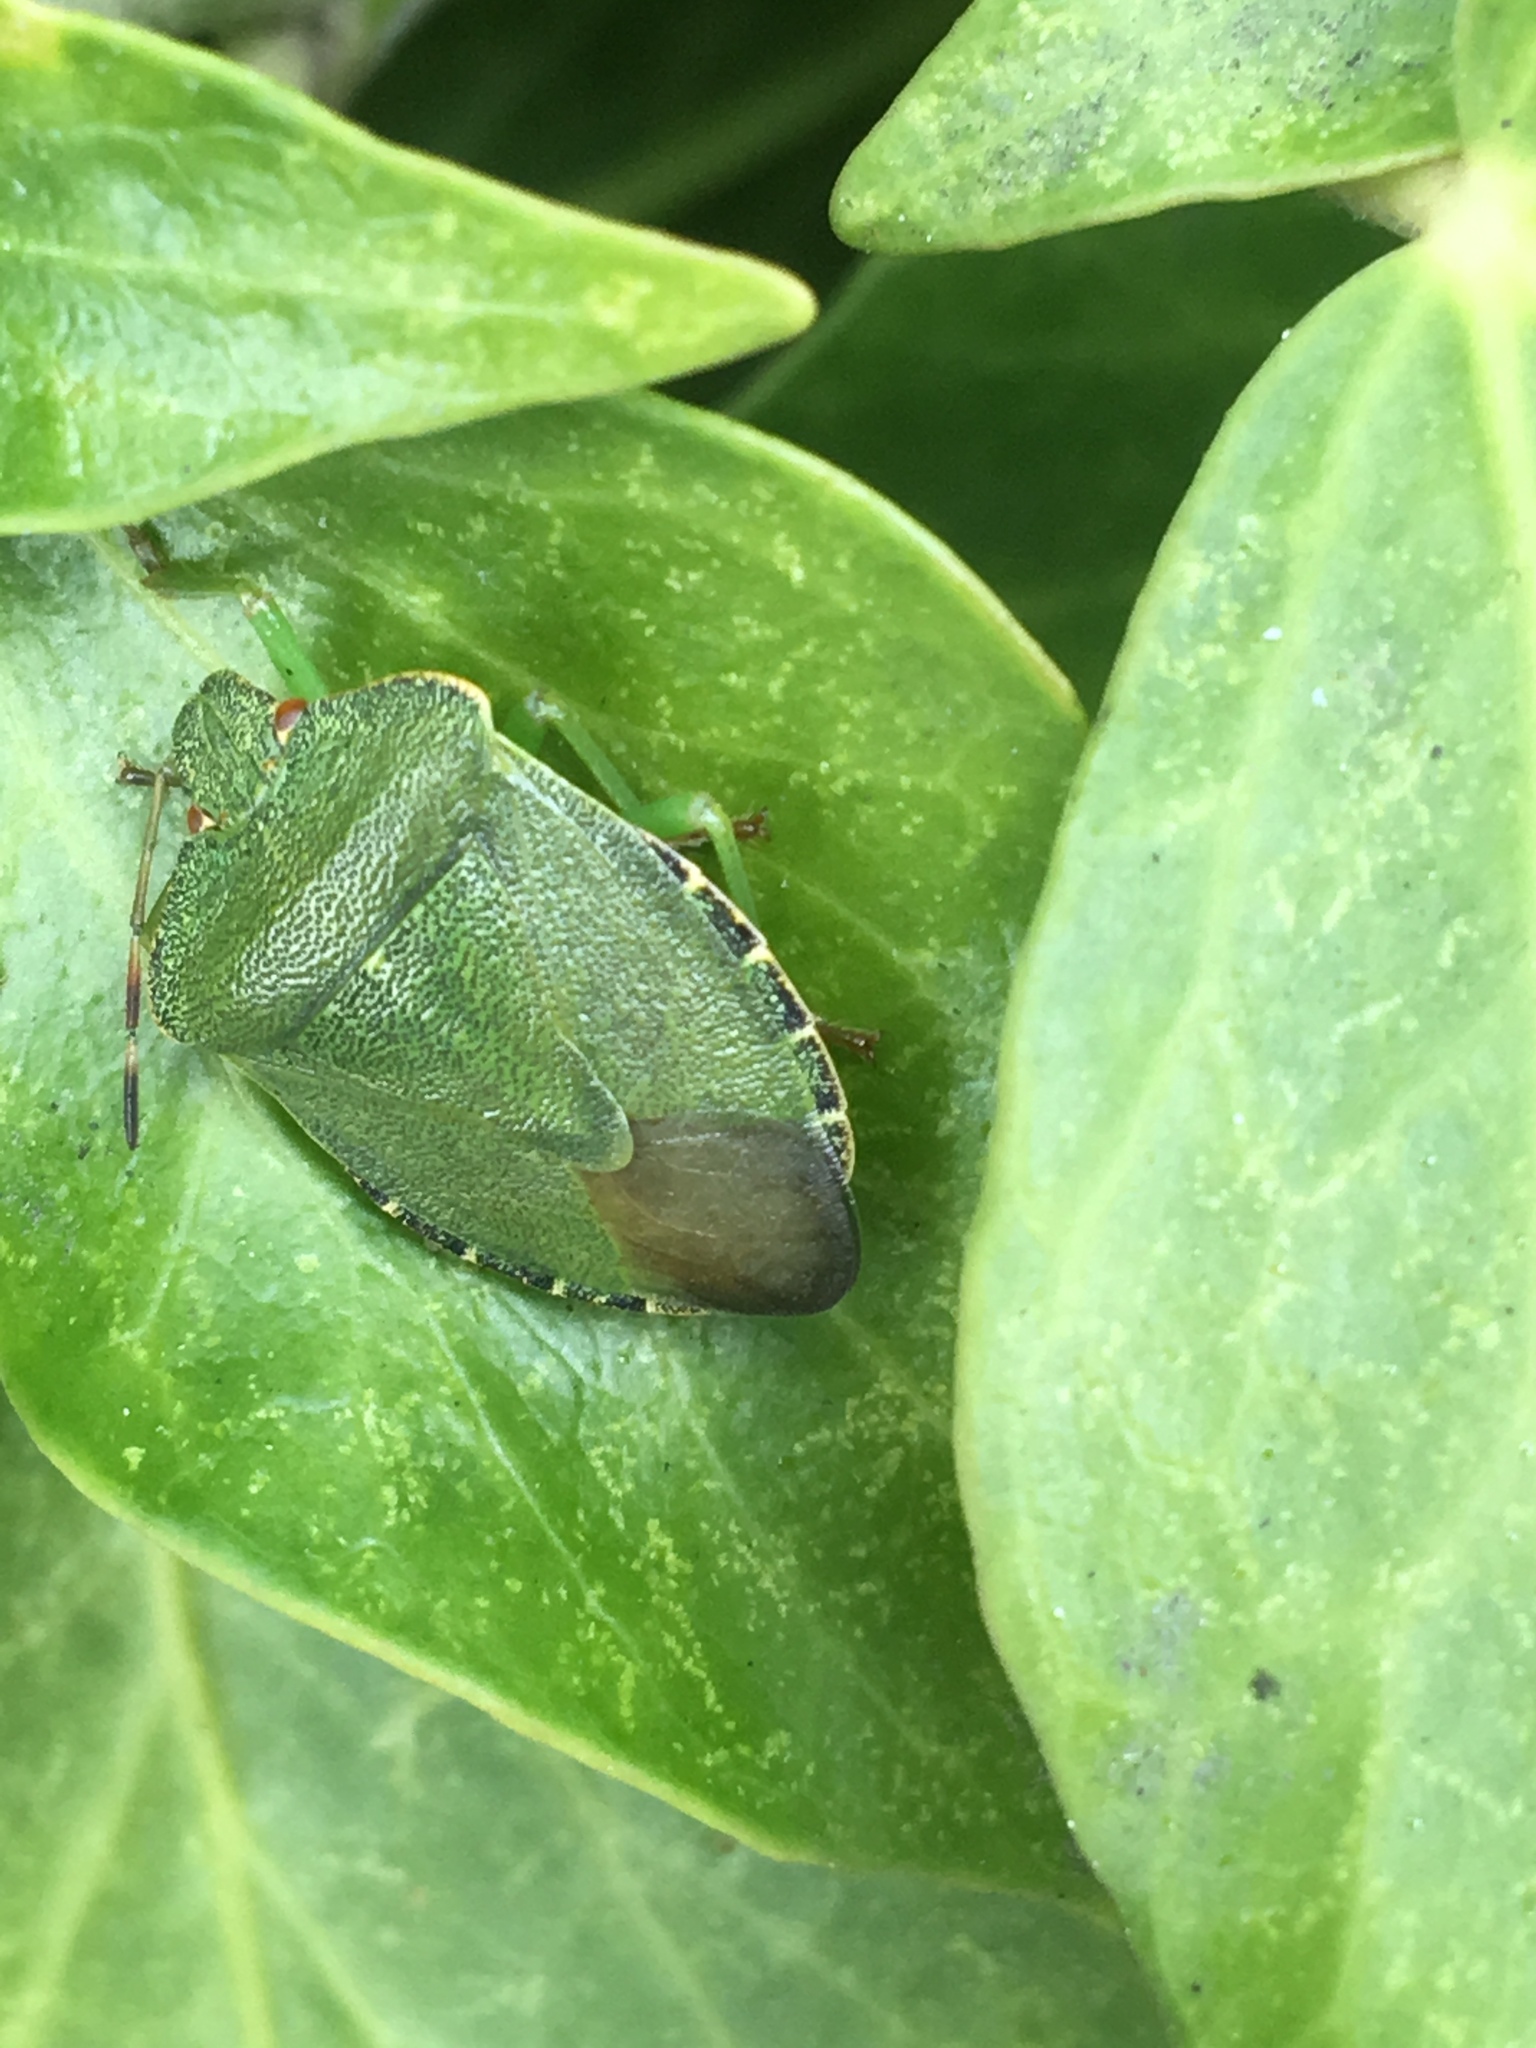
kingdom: Animalia
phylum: Arthropoda
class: Insecta
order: Hemiptera
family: Pentatomidae
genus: Palomena
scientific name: Palomena prasina
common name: Green shieldbug
